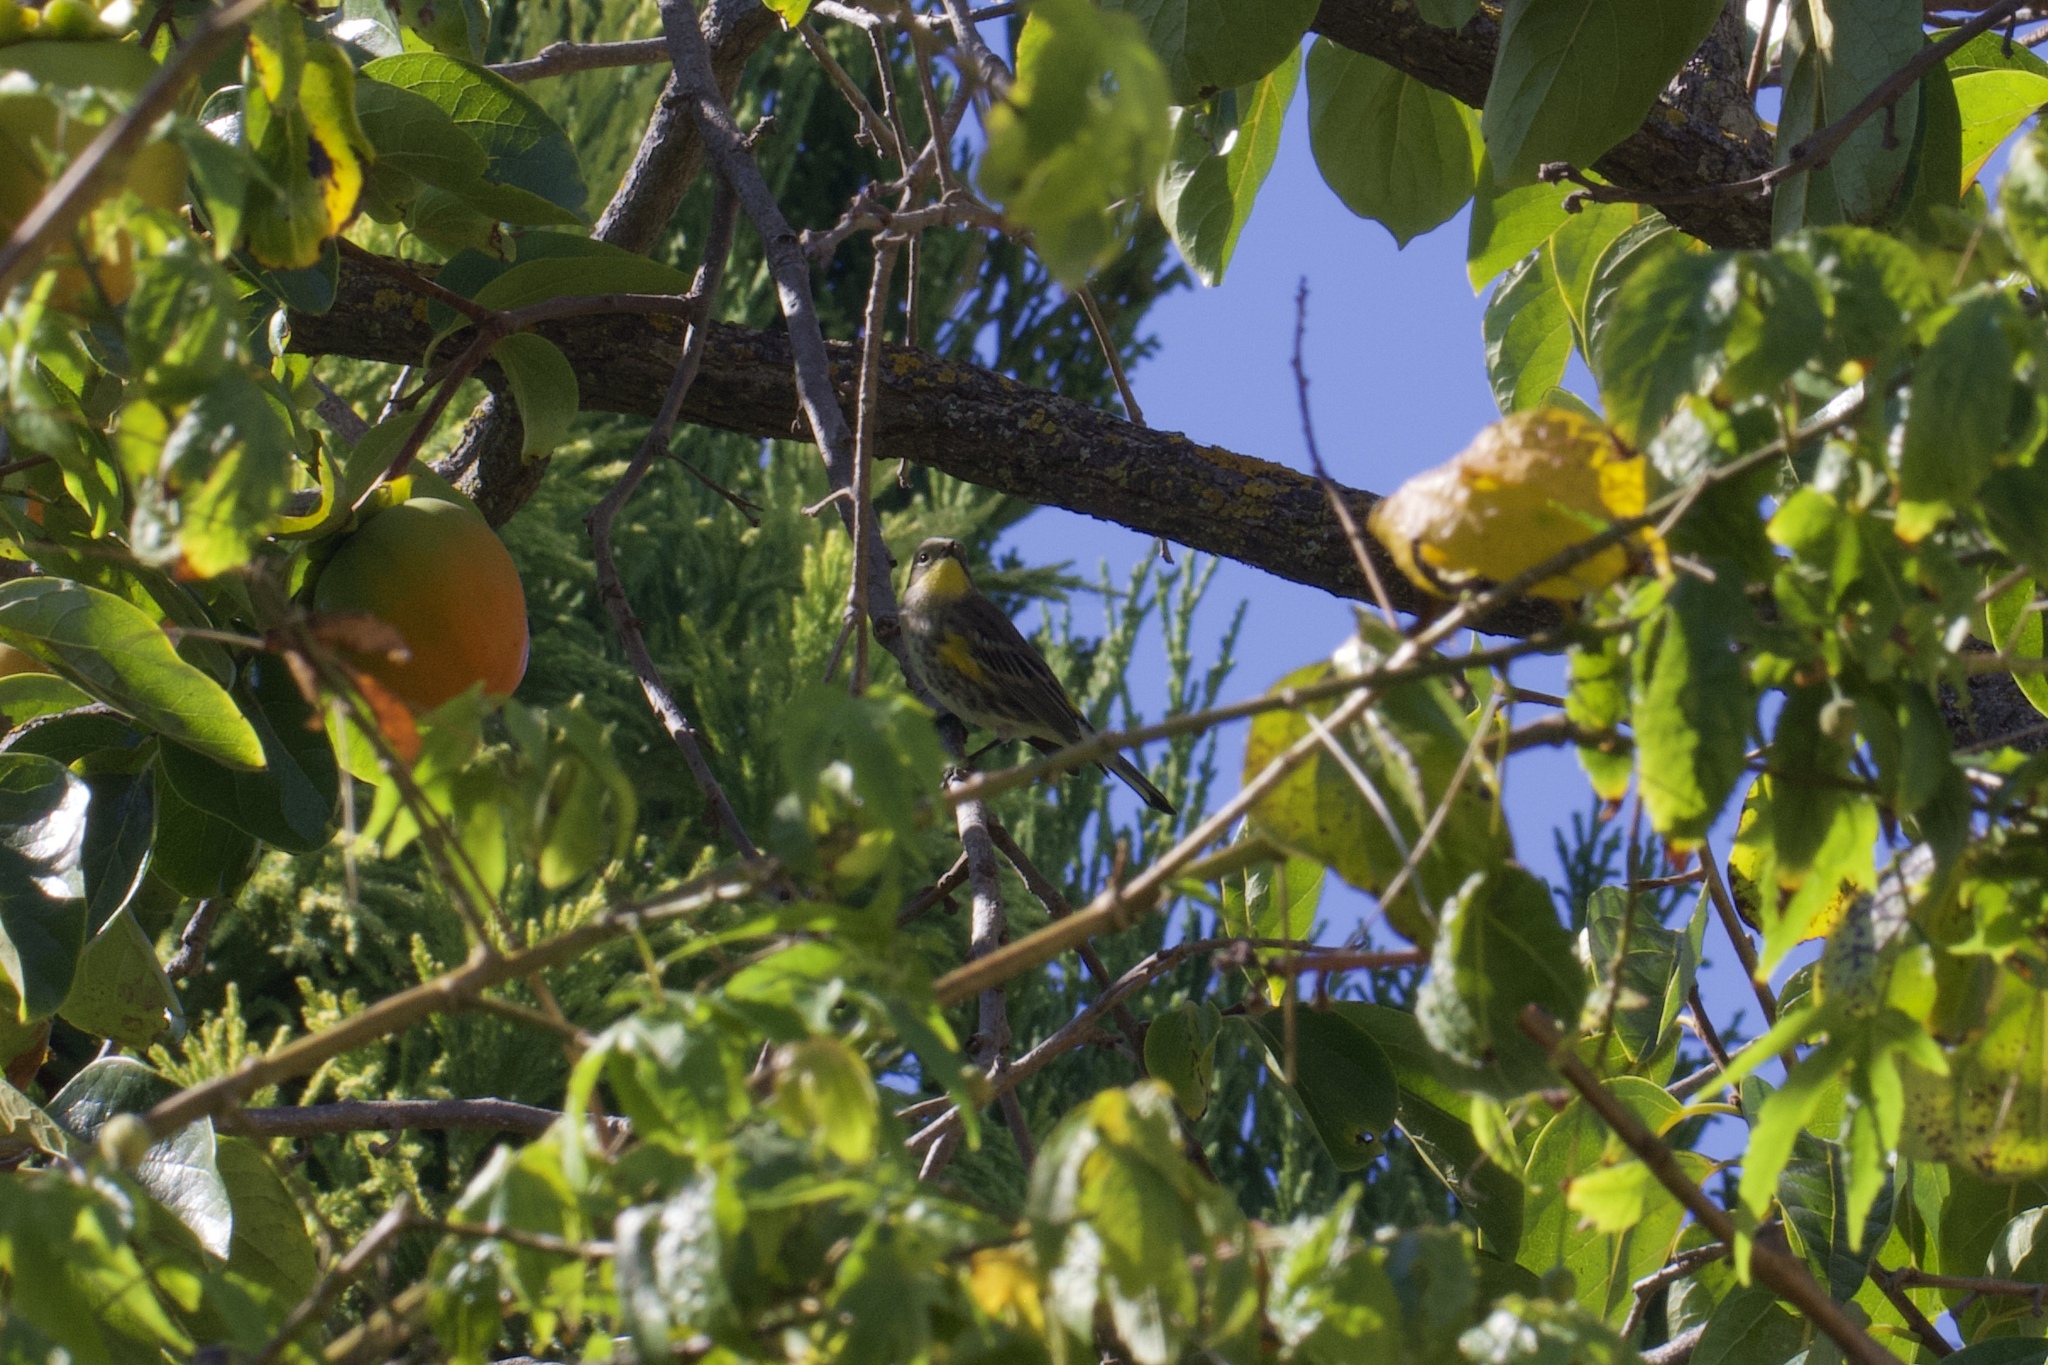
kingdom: Animalia
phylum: Chordata
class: Aves
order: Passeriformes
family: Parulidae
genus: Setophaga
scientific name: Setophaga coronata
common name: Myrtle warbler
